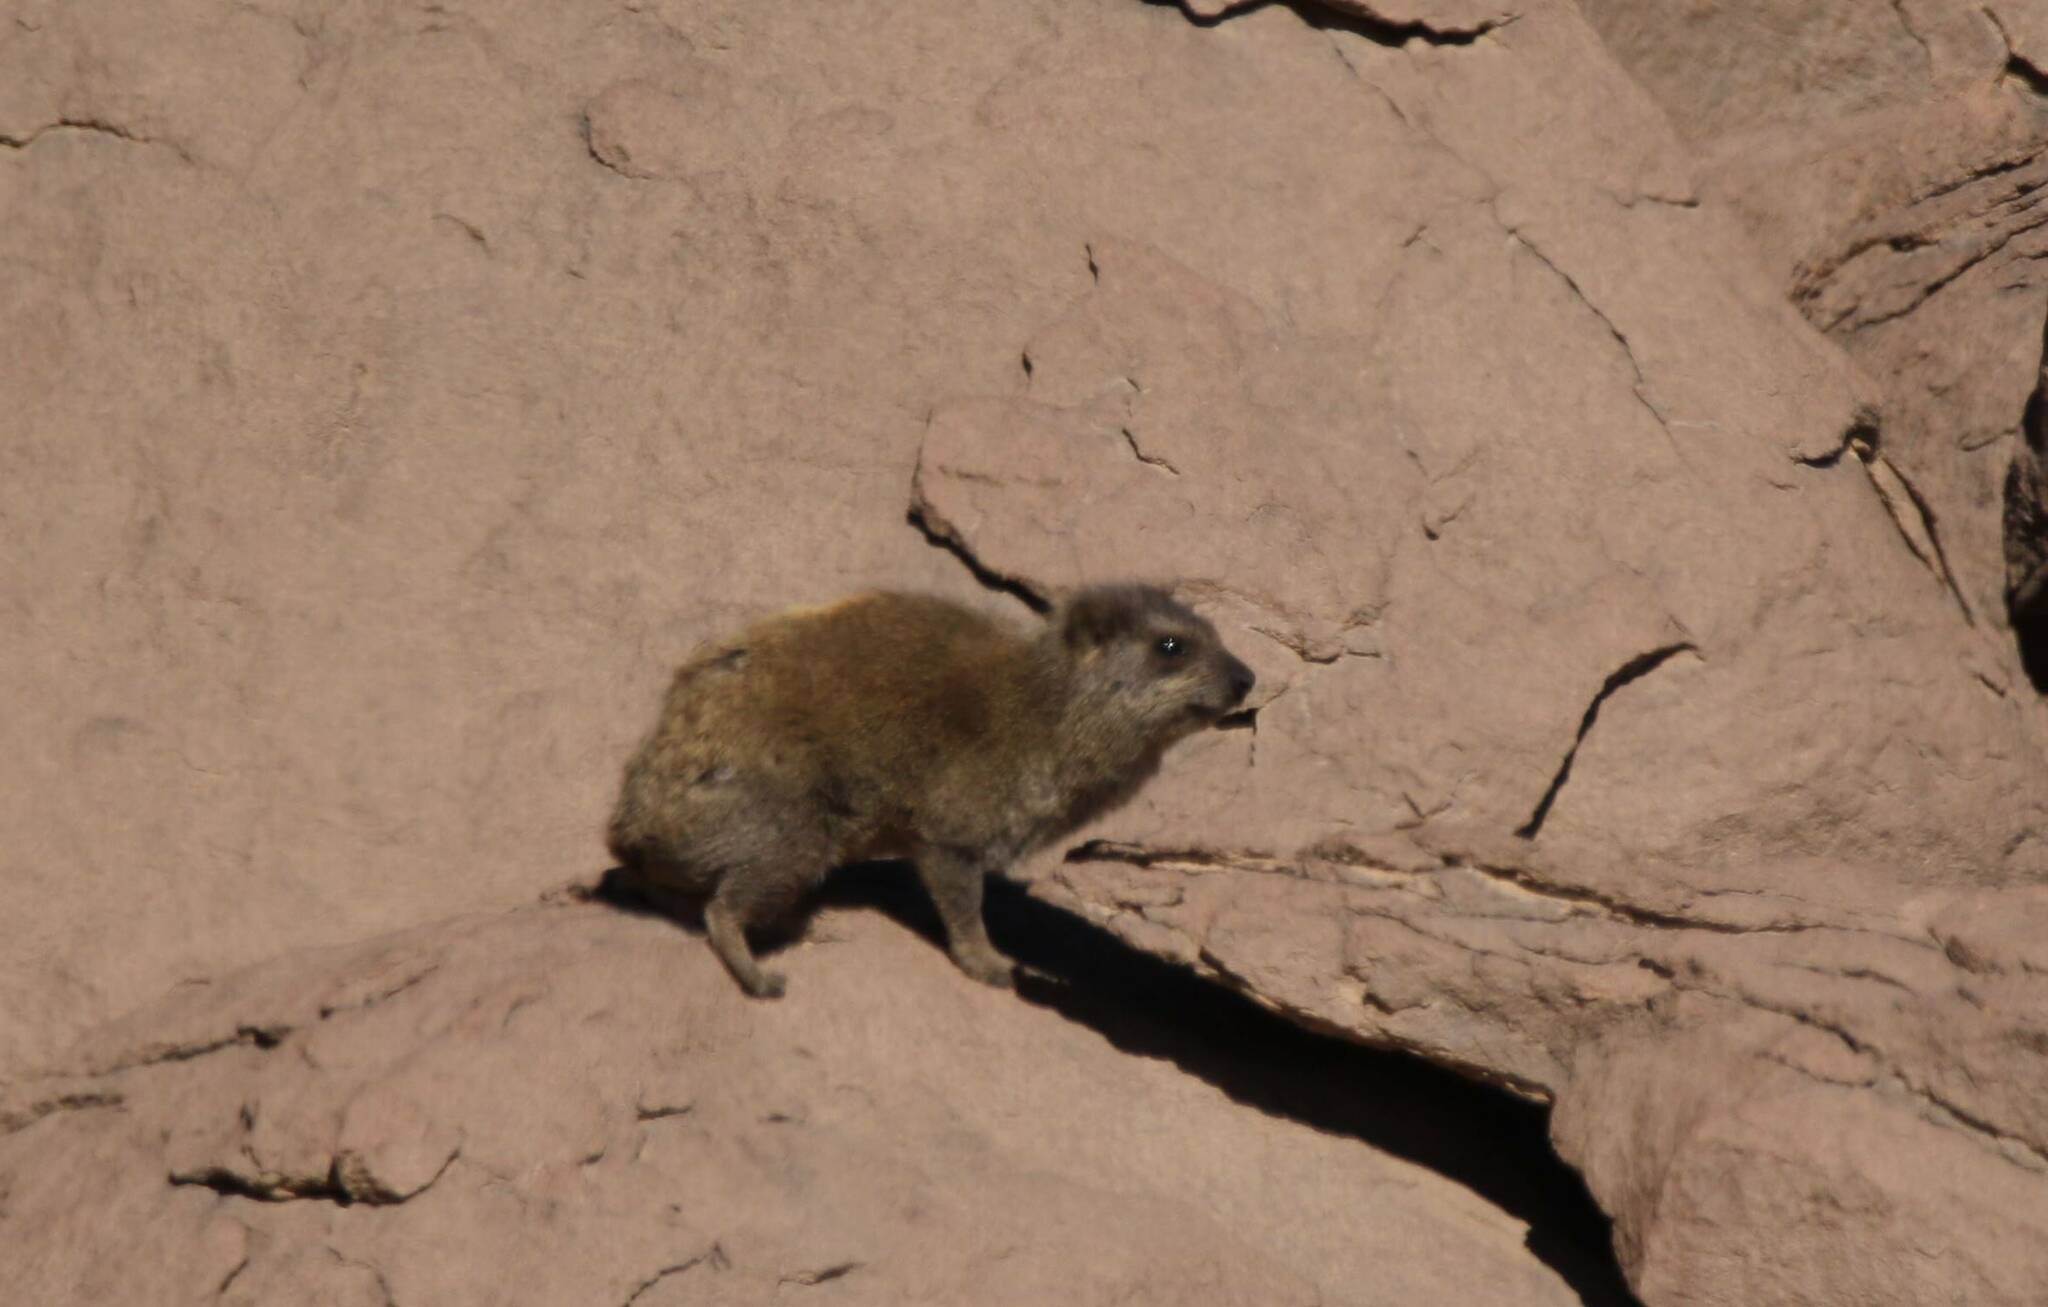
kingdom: Animalia
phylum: Chordata
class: Mammalia
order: Hyracoidea
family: Procaviidae
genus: Procavia
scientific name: Procavia capensis
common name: Rock hyrax
